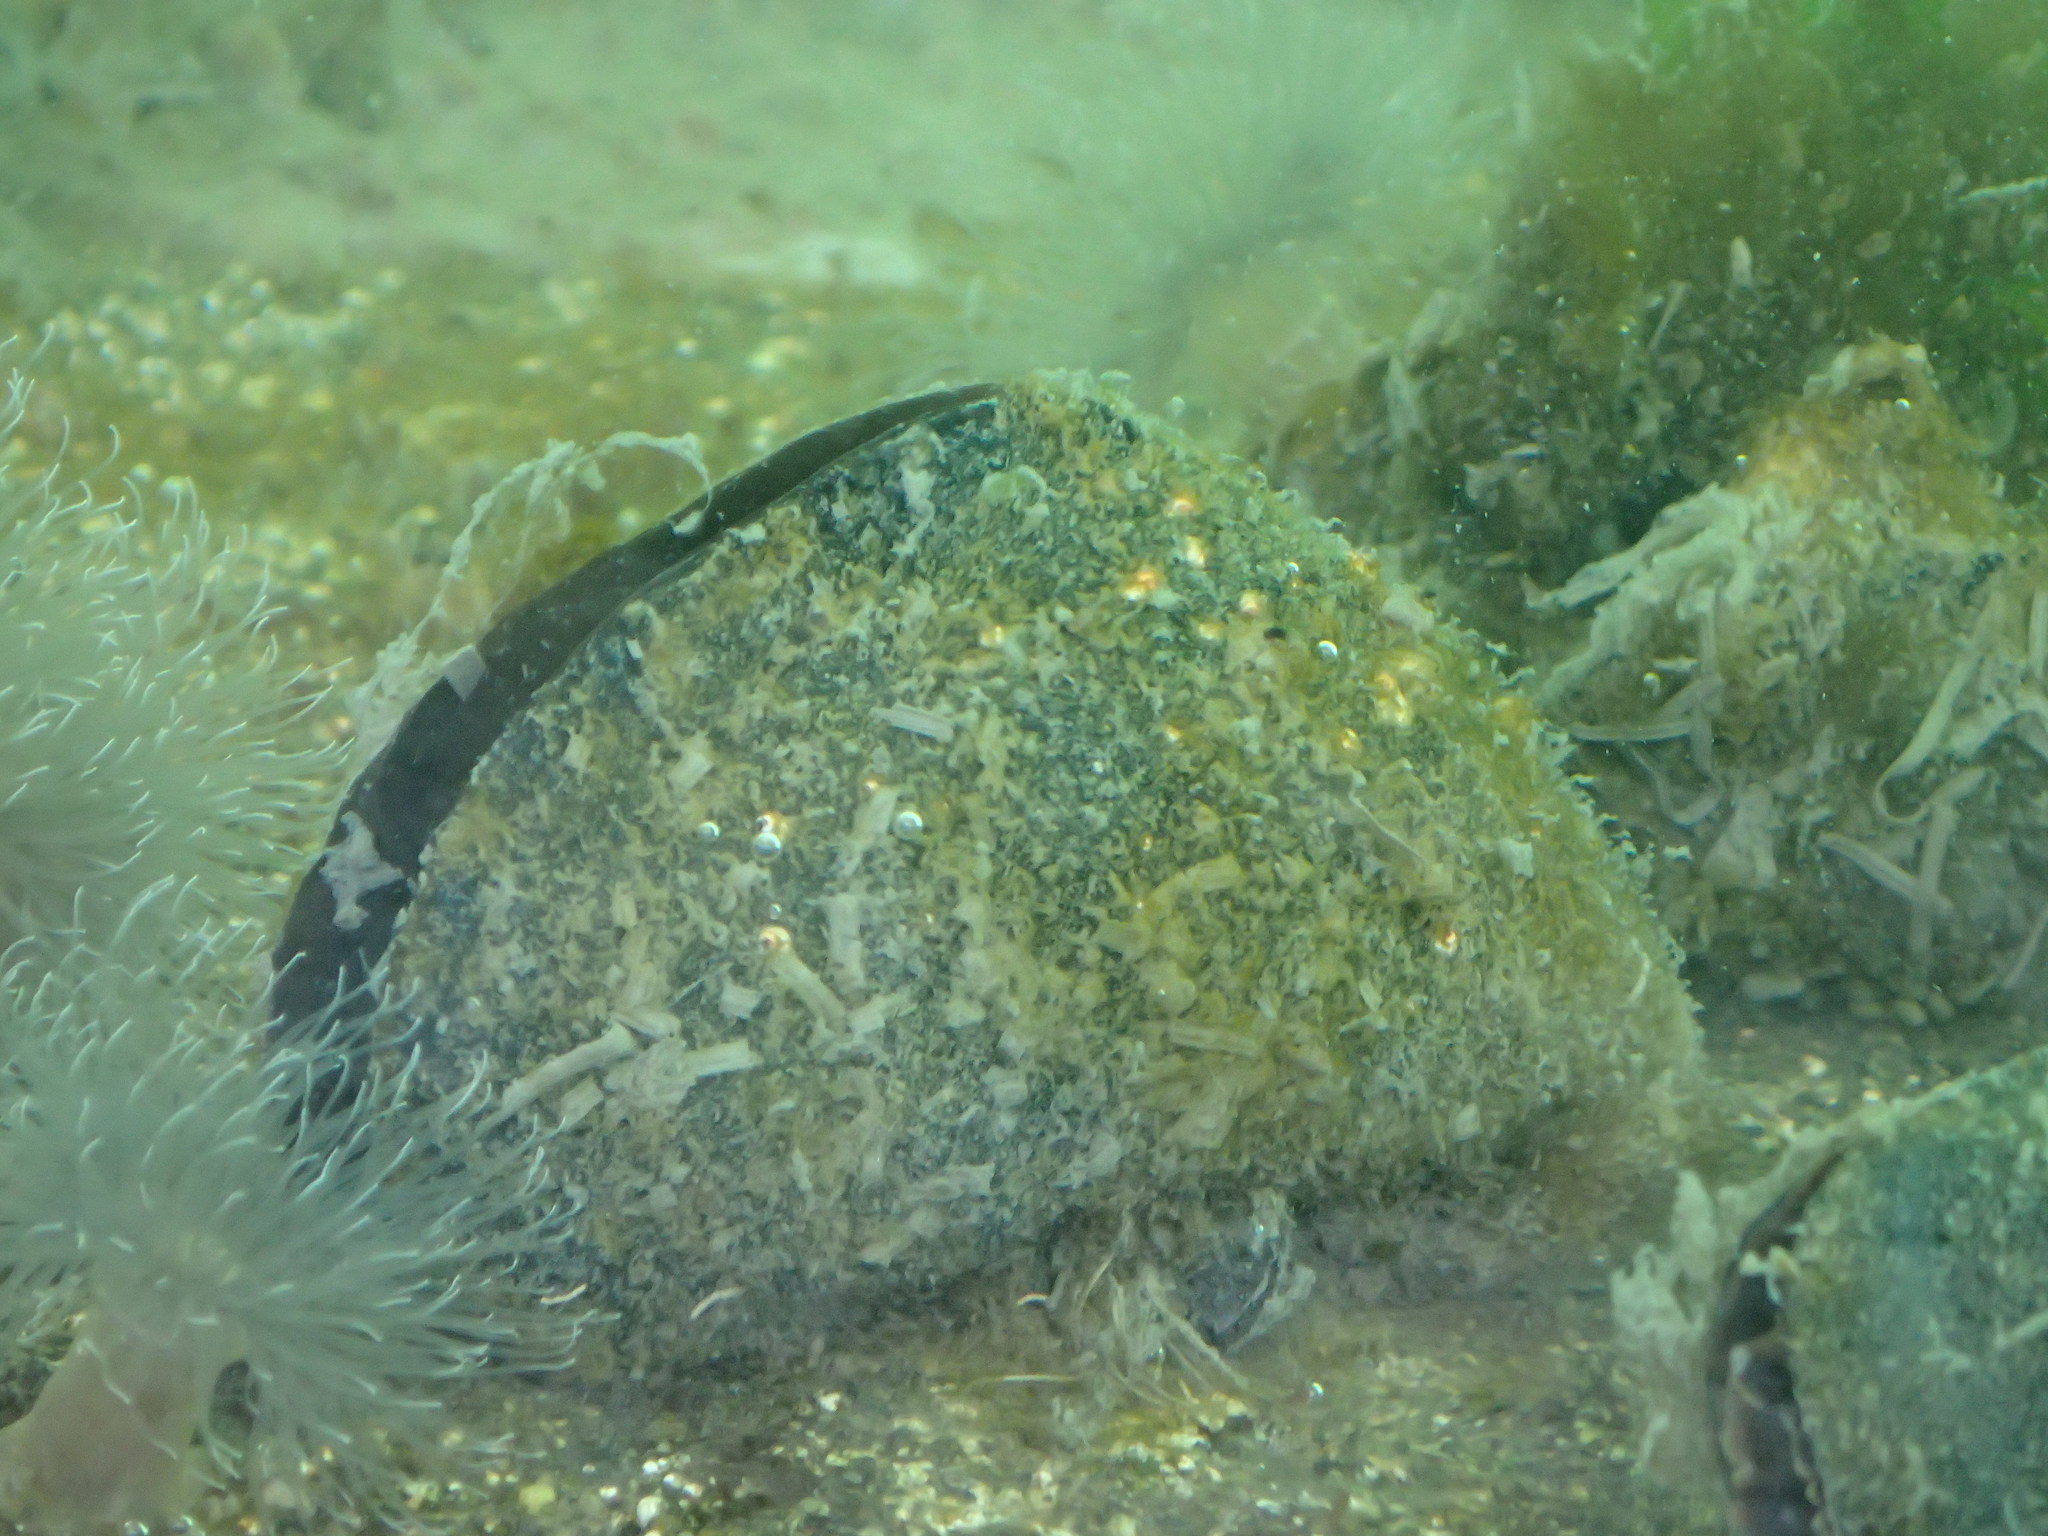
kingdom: Animalia
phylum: Mollusca
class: Bivalvia
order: Mytilida
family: Mytilidae
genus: Mytilus
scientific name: Mytilus trossulus
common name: Northern blue mussel
